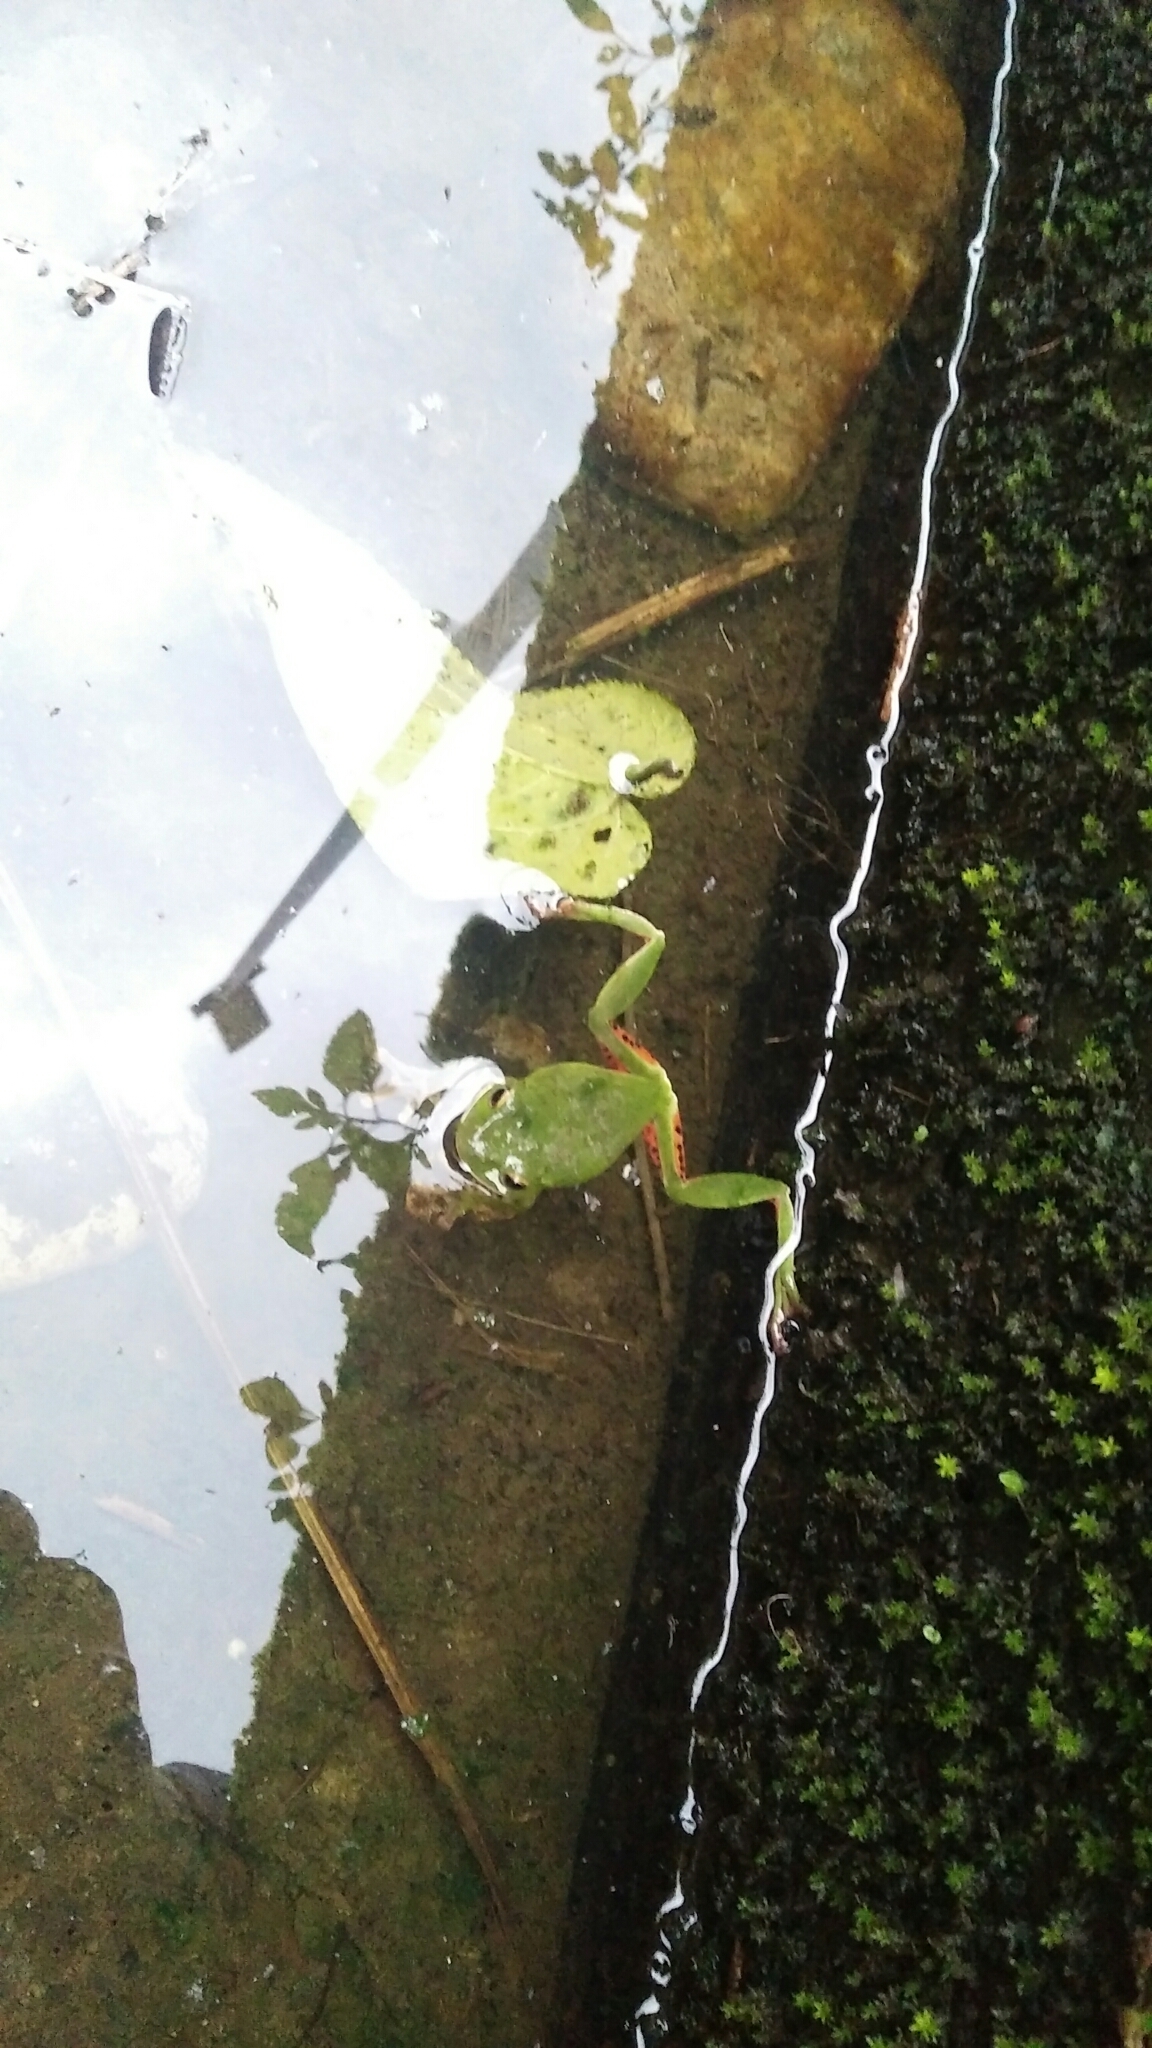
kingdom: Animalia
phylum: Chordata
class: Amphibia
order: Anura
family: Rhacophoridae
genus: Zhangixalus
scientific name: Zhangixalus moltrechti
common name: Moltrecht's treefrog
